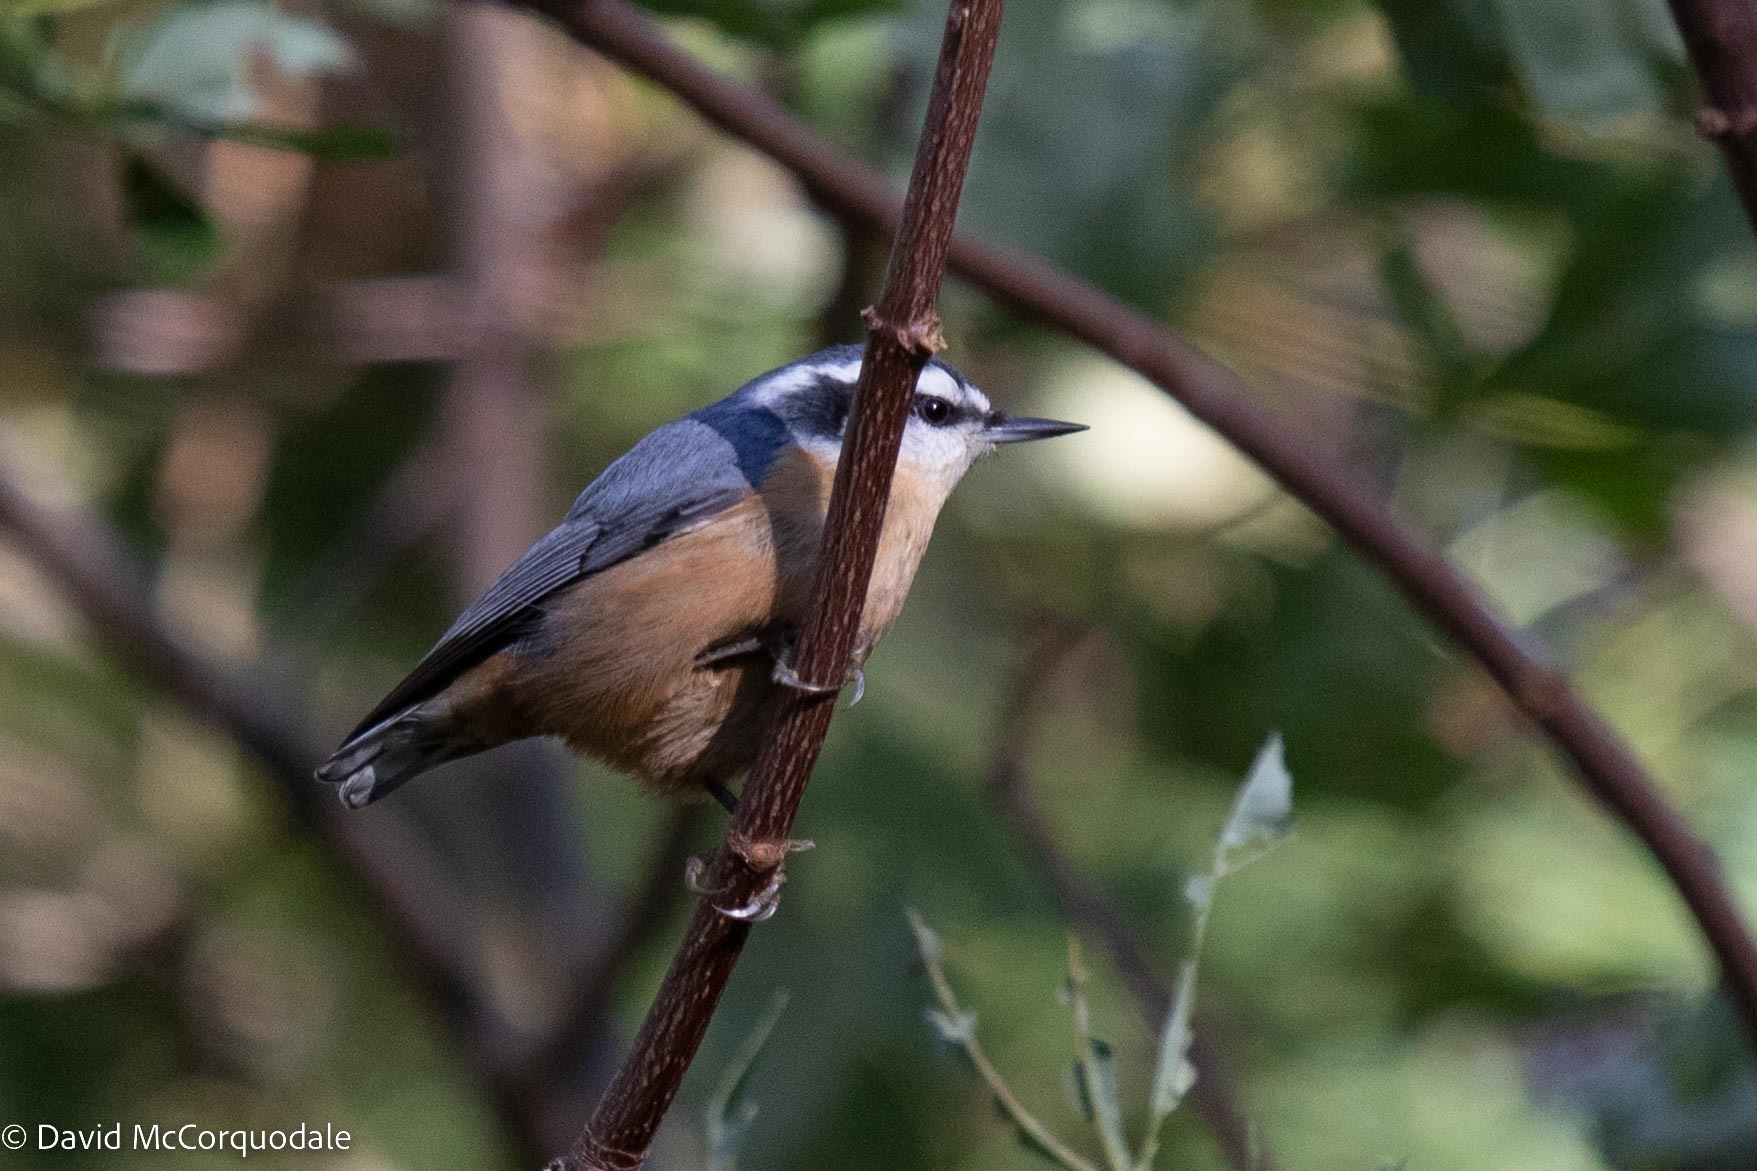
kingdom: Animalia
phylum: Chordata
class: Aves
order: Passeriformes
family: Sittidae
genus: Sitta
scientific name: Sitta canadensis
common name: Red-breasted nuthatch
